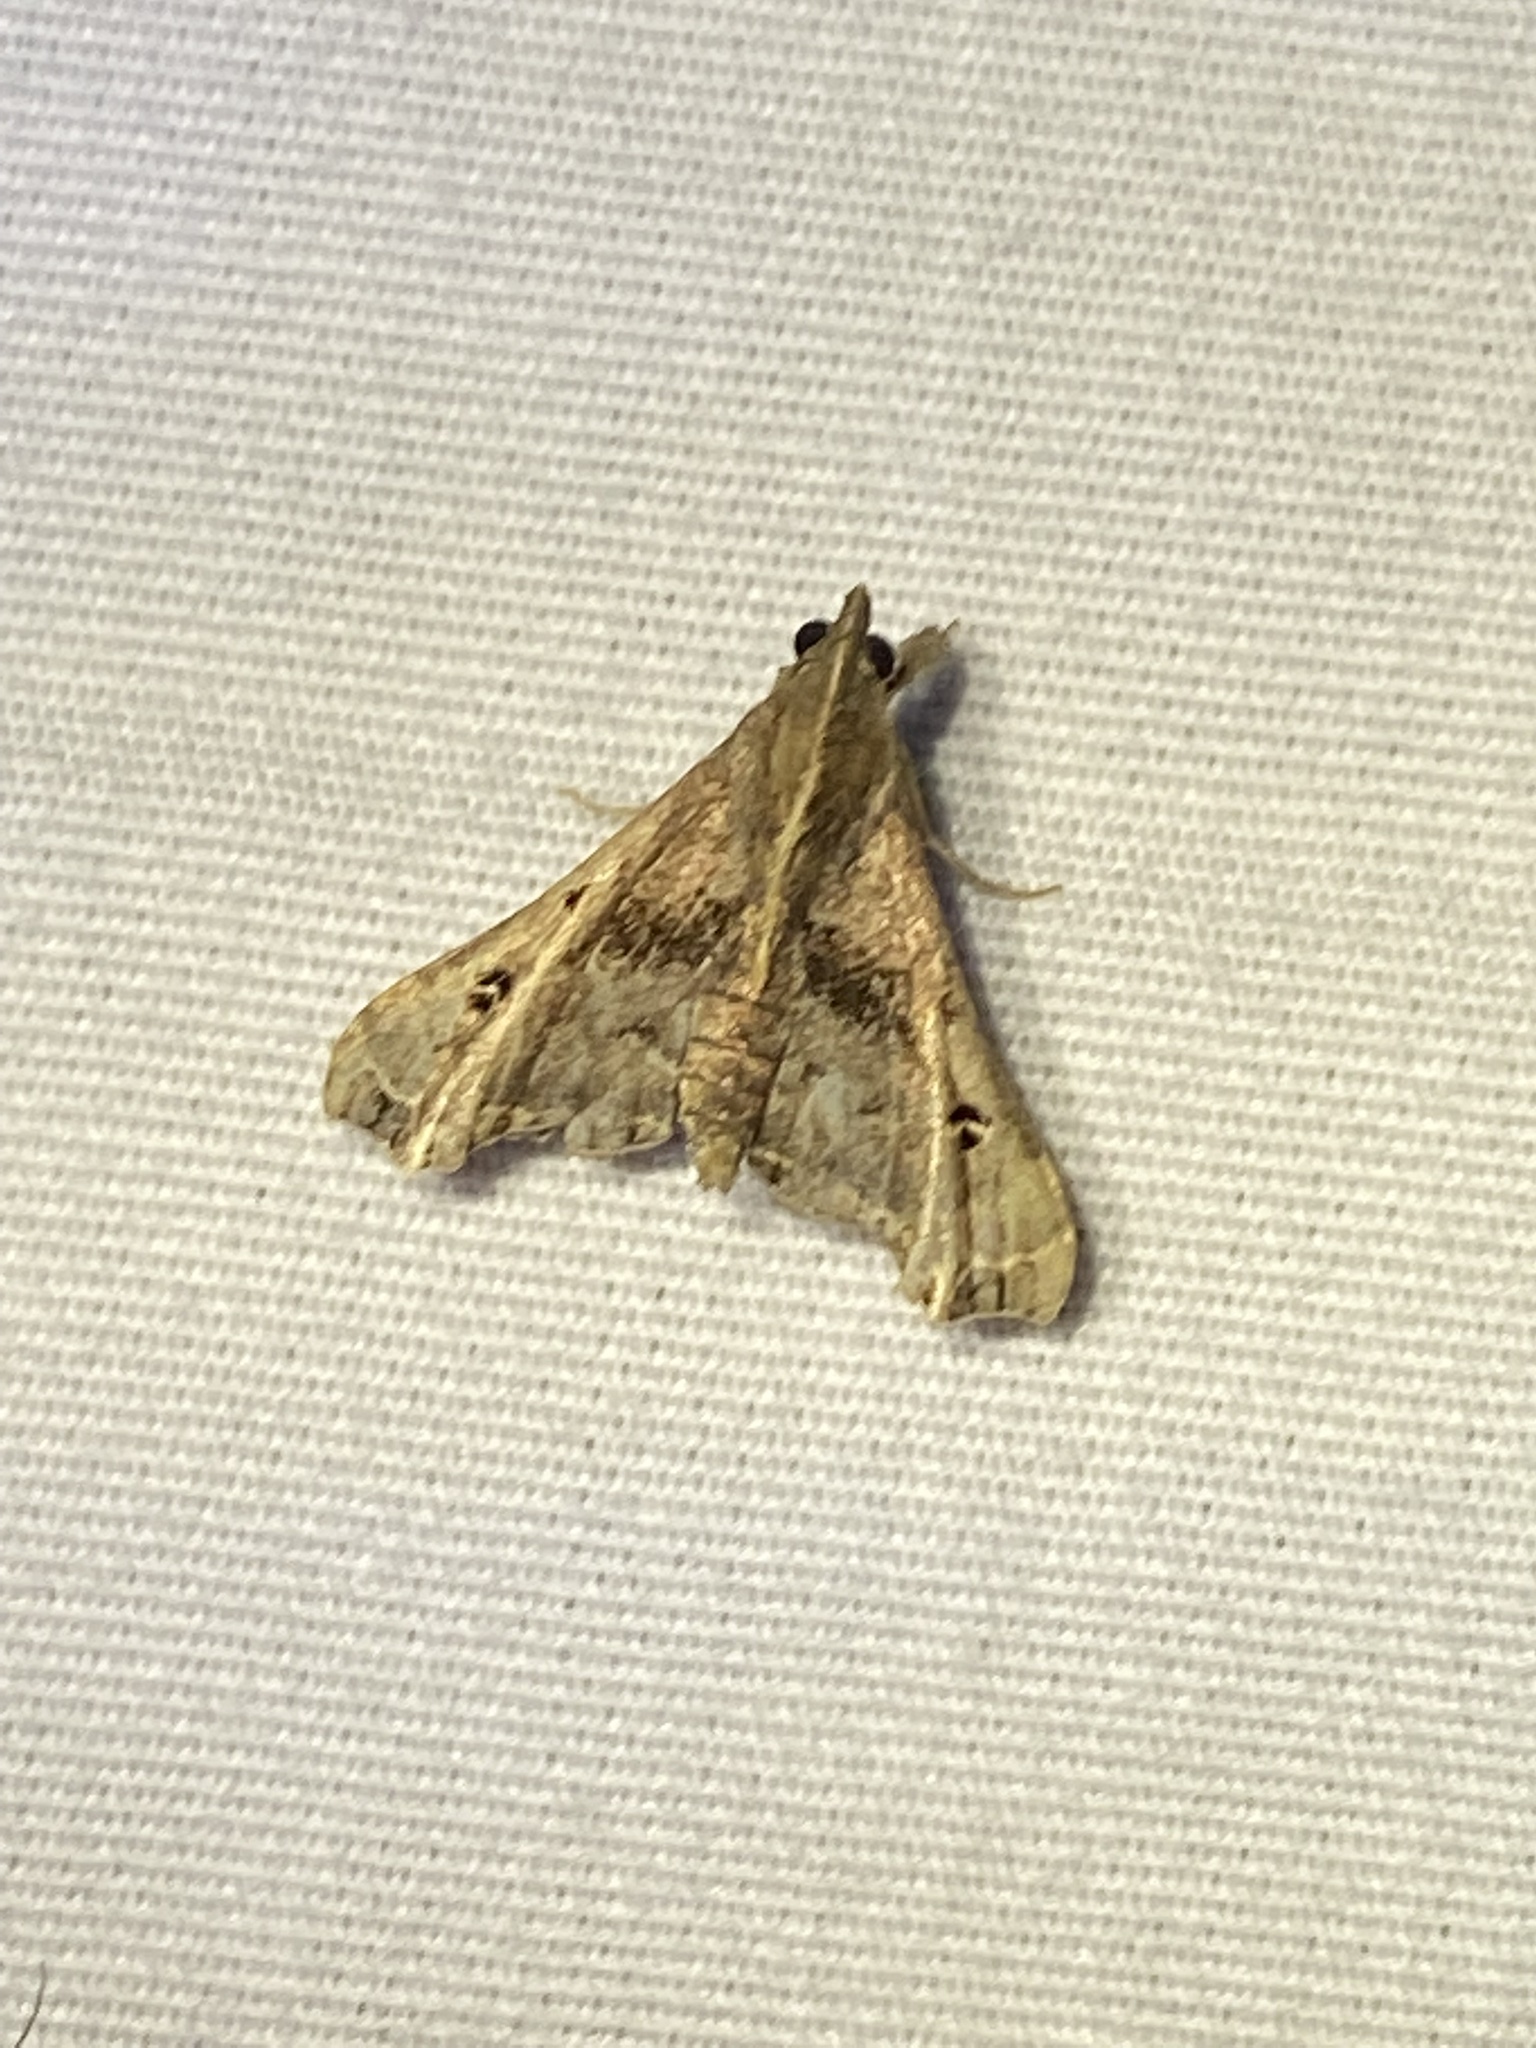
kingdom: Animalia
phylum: Arthropoda
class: Insecta
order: Lepidoptera
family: Erebidae
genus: Palthis
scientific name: Palthis asopialis
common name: Faint-spotted palthis moth
